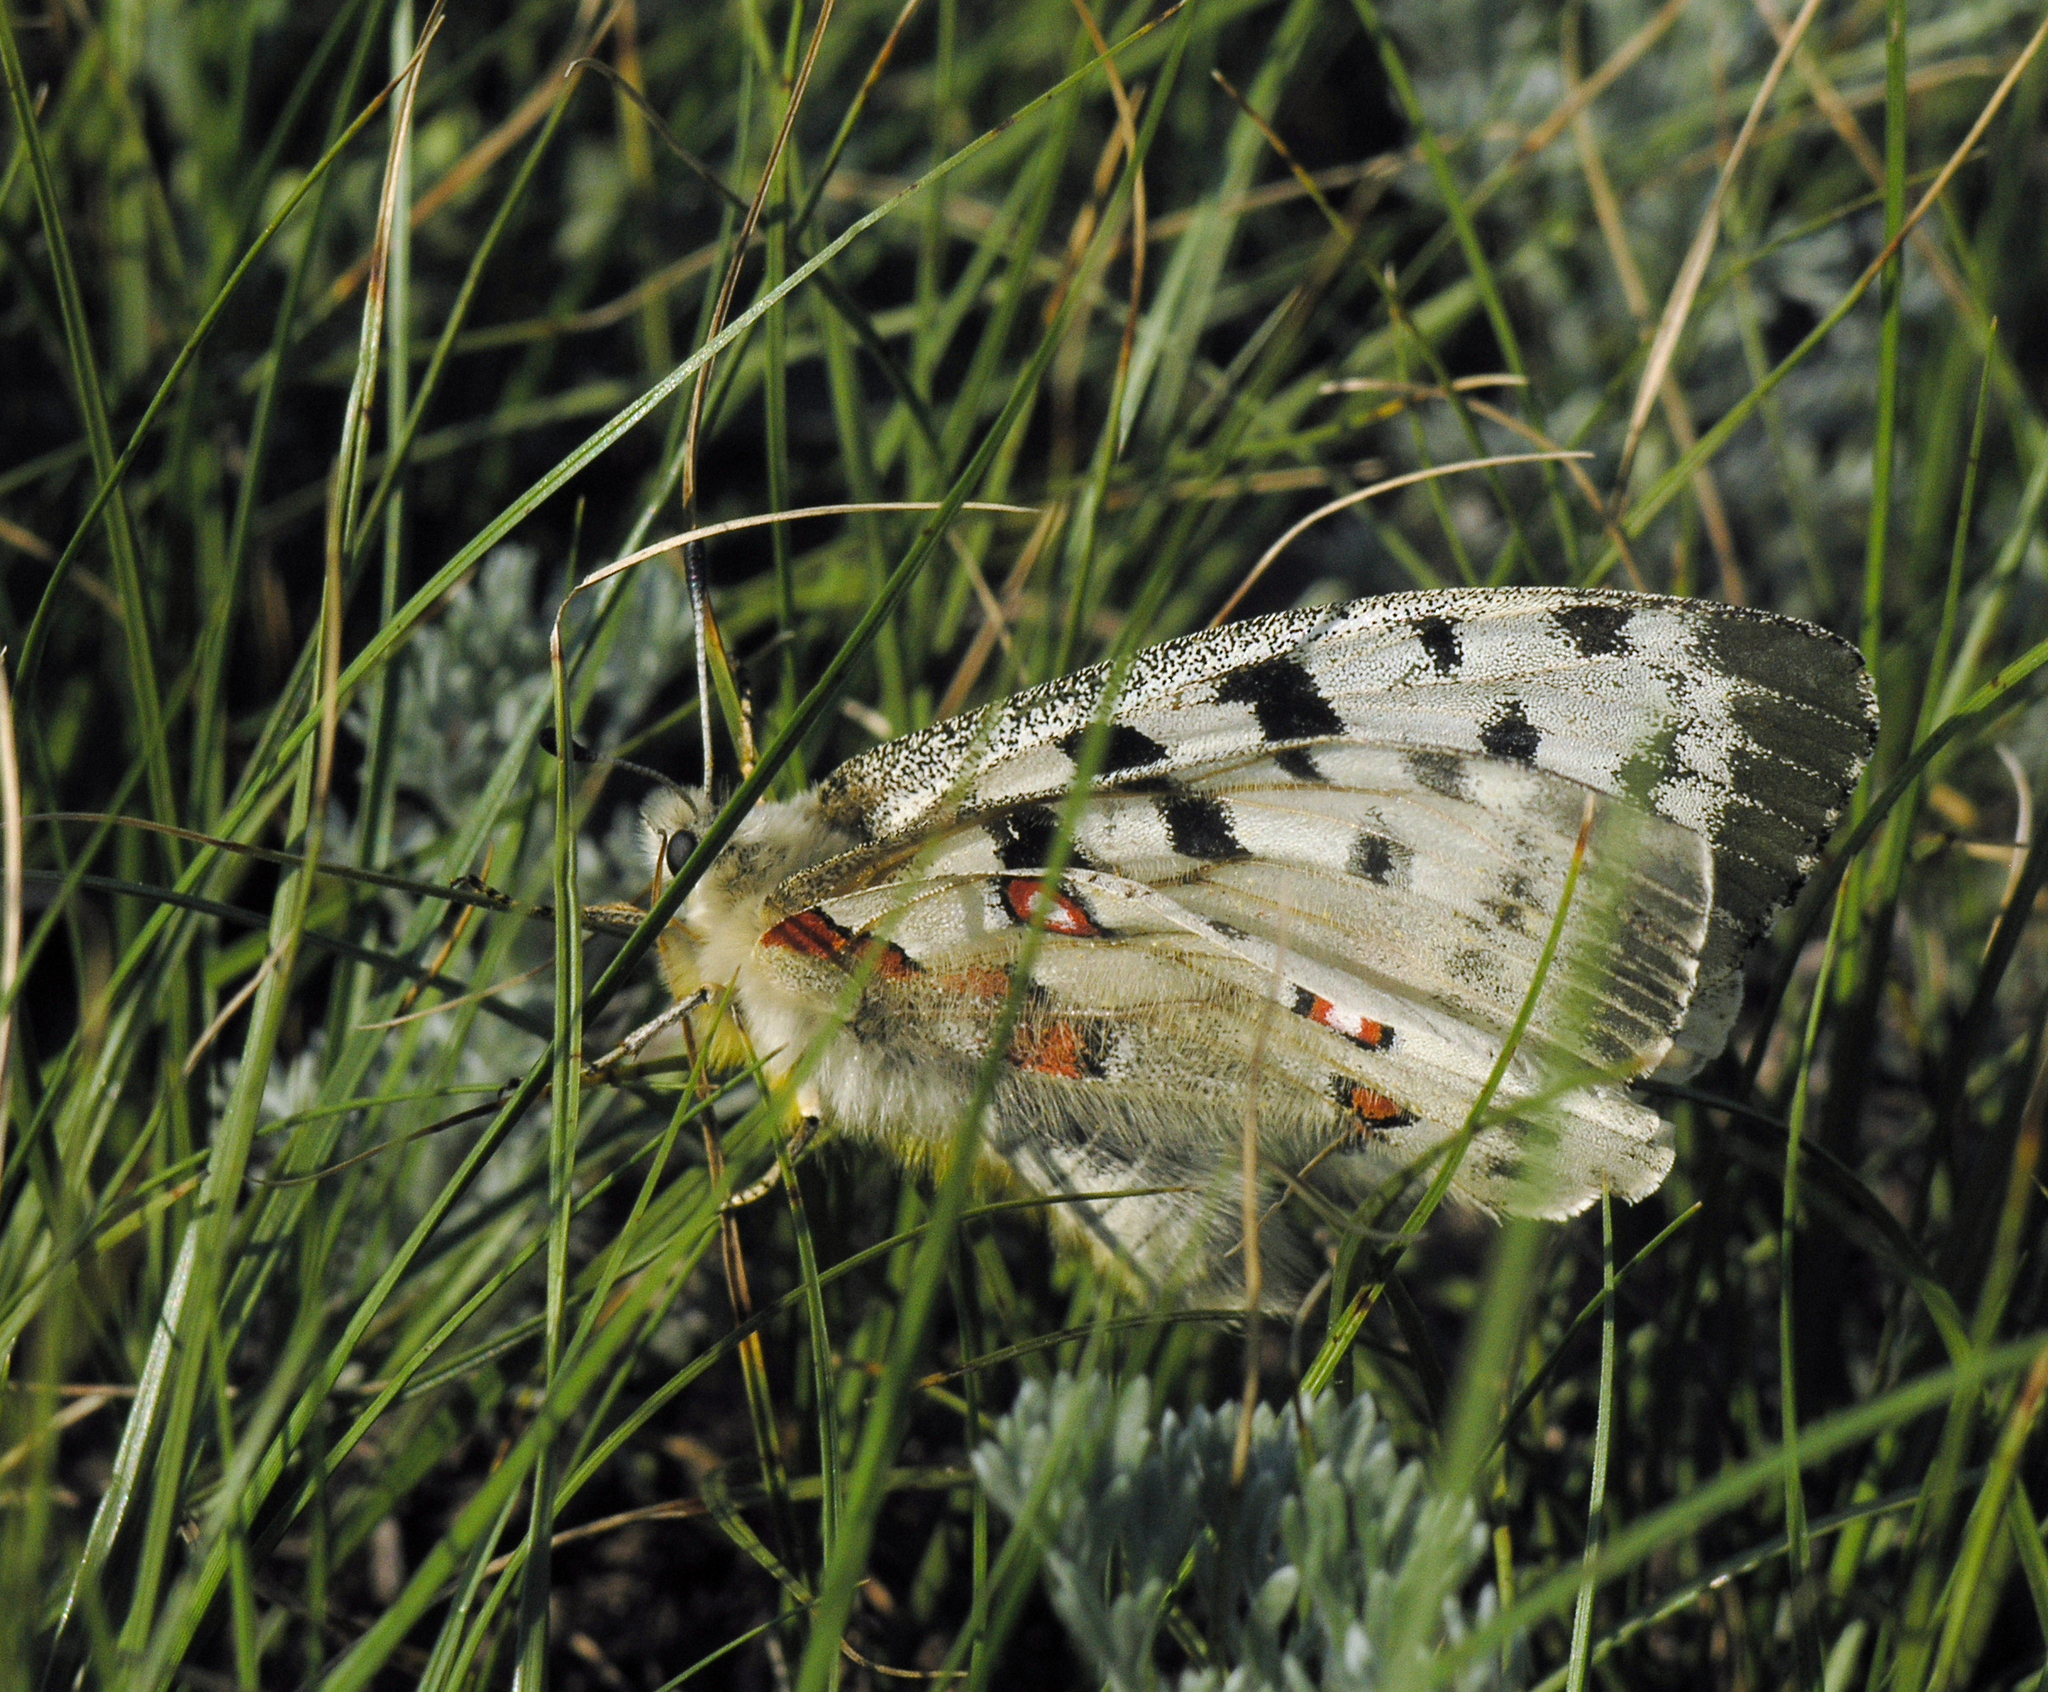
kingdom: Animalia
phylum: Arthropoda
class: Insecta
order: Lepidoptera
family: Papilionidae
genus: Parnassius
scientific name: Parnassius apollo
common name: Apollo
